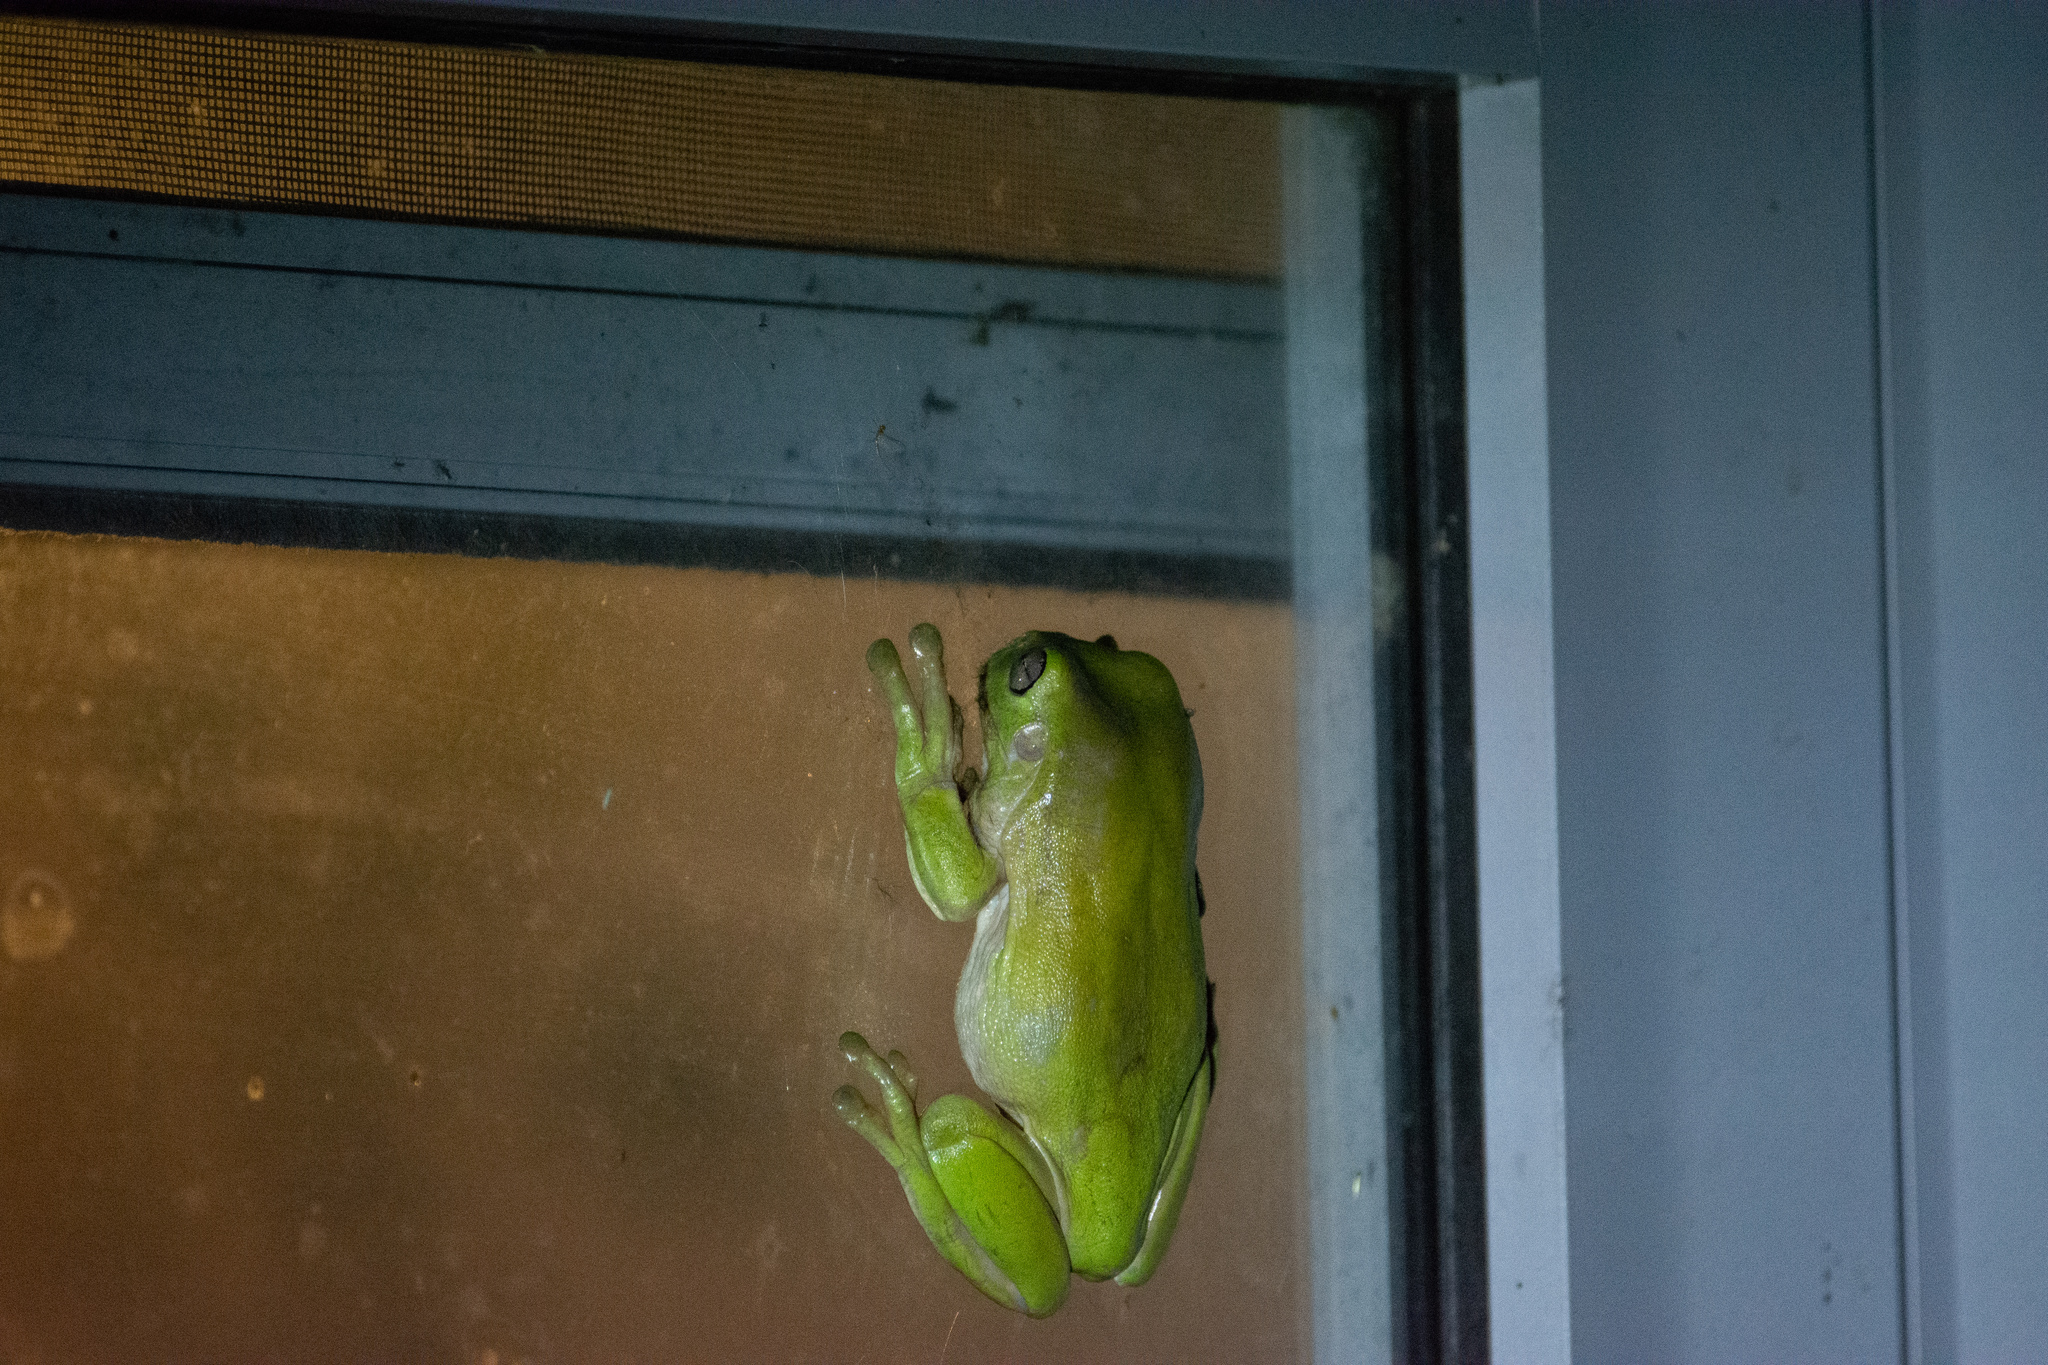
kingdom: Animalia
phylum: Chordata
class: Amphibia
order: Anura
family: Pelodryadidae
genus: Ranoidea
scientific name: Ranoidea caerulea
